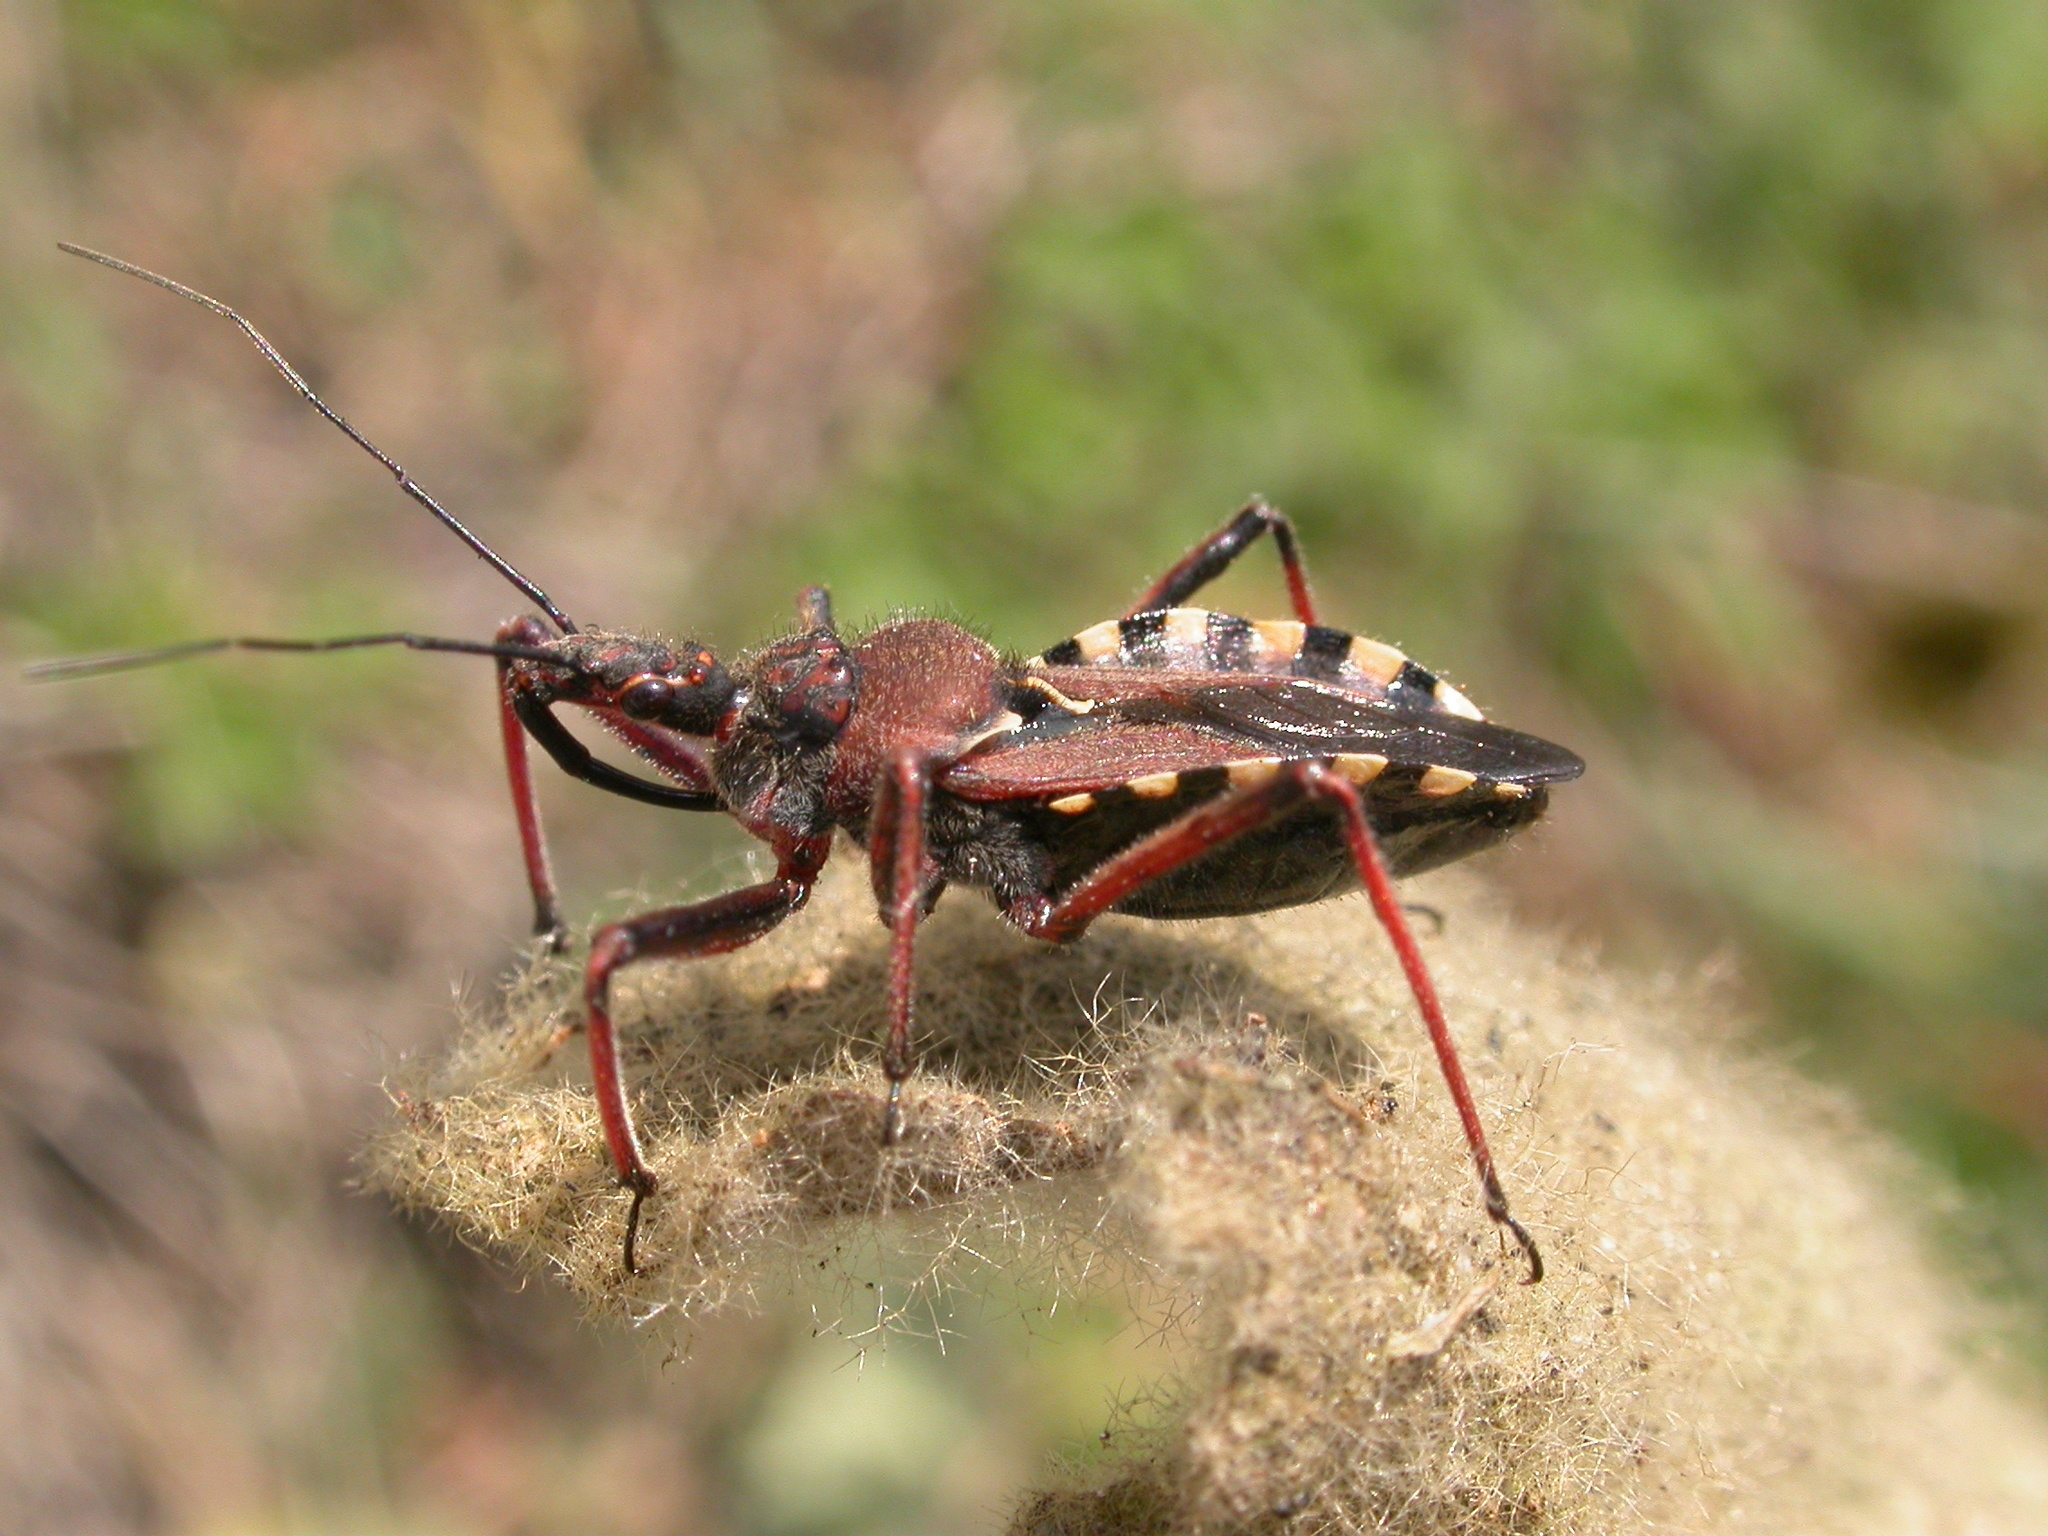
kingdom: Animalia
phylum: Arthropoda
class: Insecta
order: Hemiptera
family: Reduviidae
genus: Rhynocoris
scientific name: Rhynocoris erythropus
